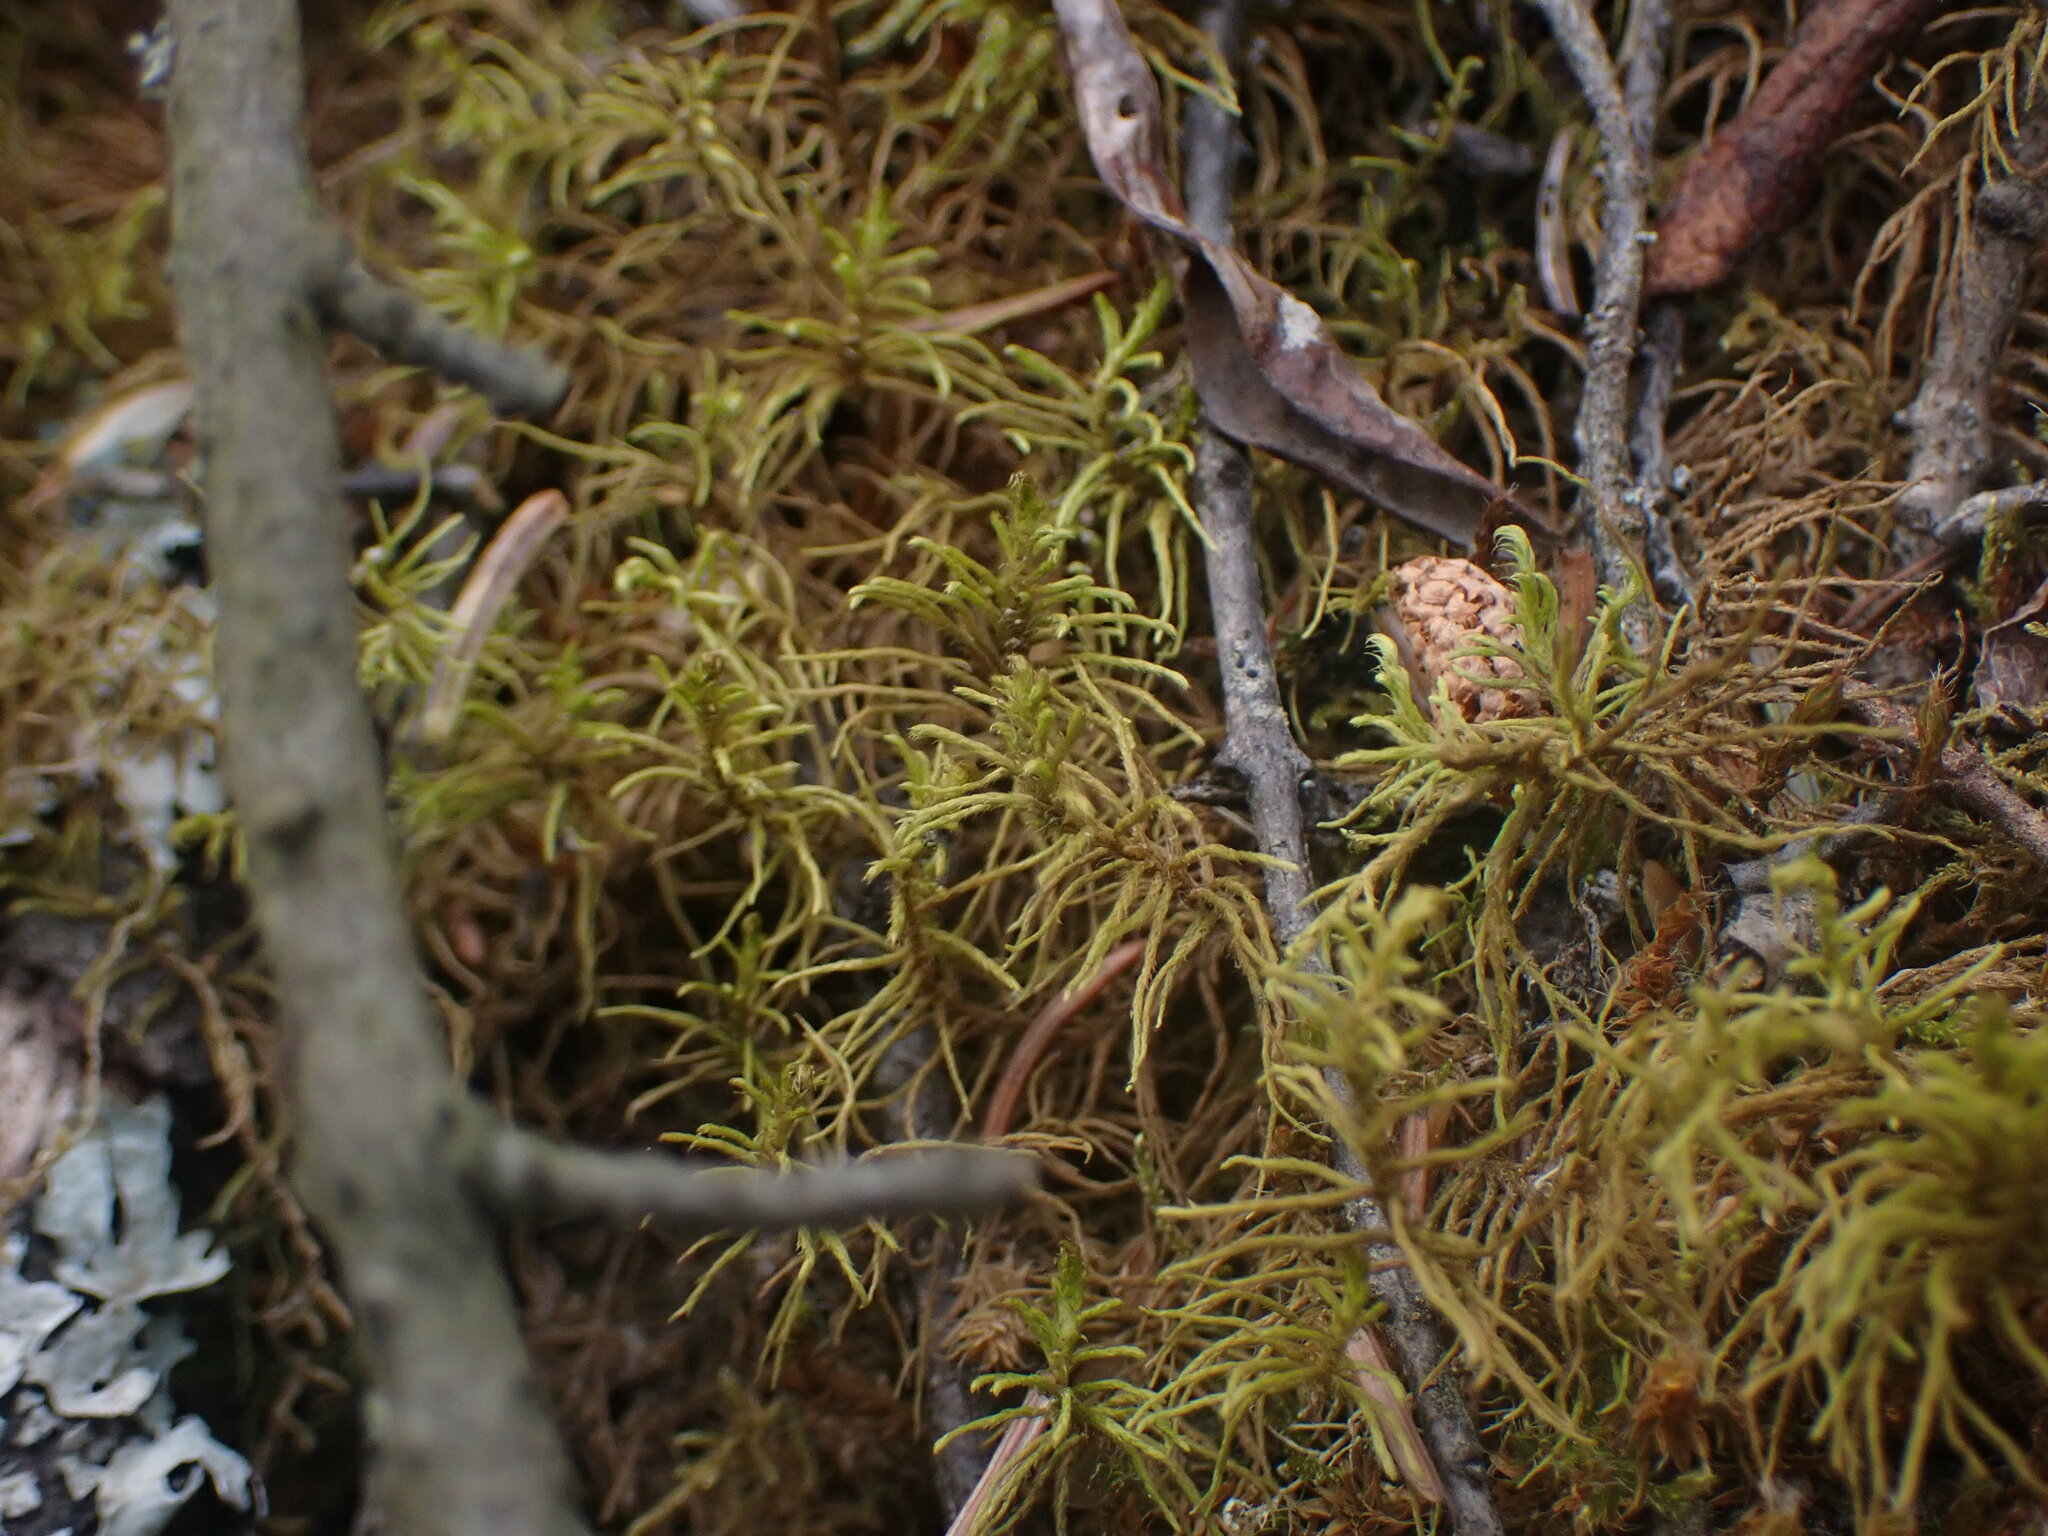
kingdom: Plantae
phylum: Bryophyta
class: Bryopsida
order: Hypnales
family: Thuidiaceae
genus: Abietinella
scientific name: Abietinella abietina
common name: Wiry fern moss
